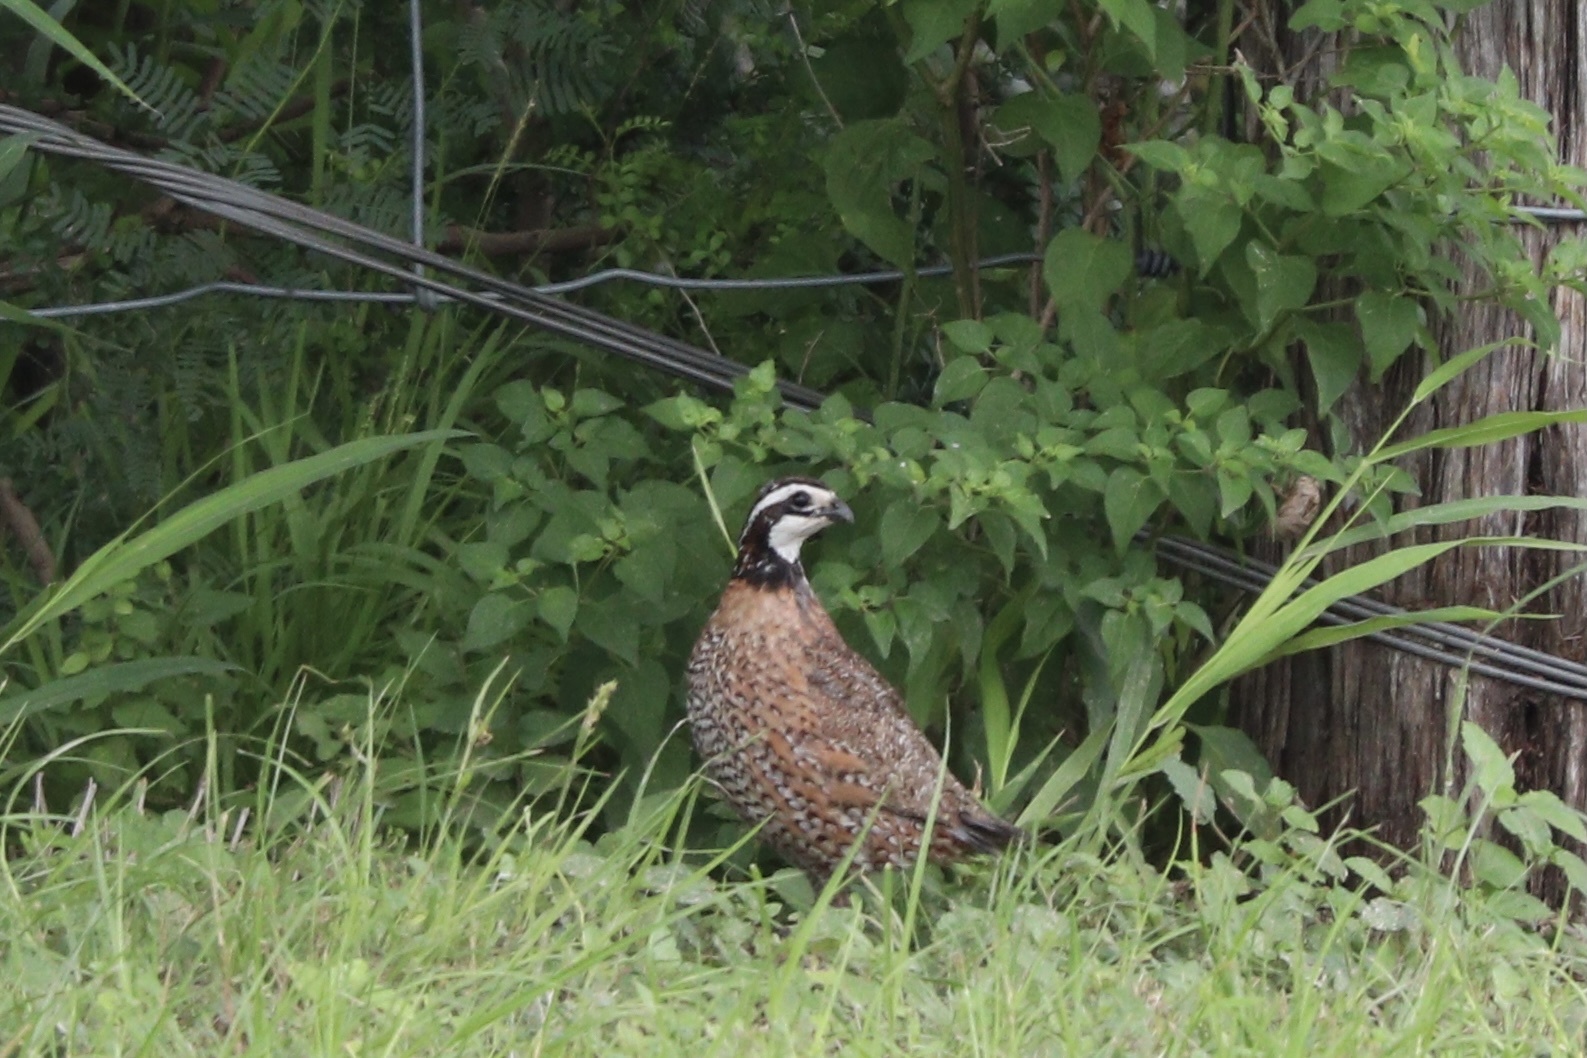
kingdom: Animalia
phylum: Chordata
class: Aves
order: Galliformes
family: Odontophoridae
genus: Colinus
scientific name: Colinus virginianus
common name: Northern bobwhite
